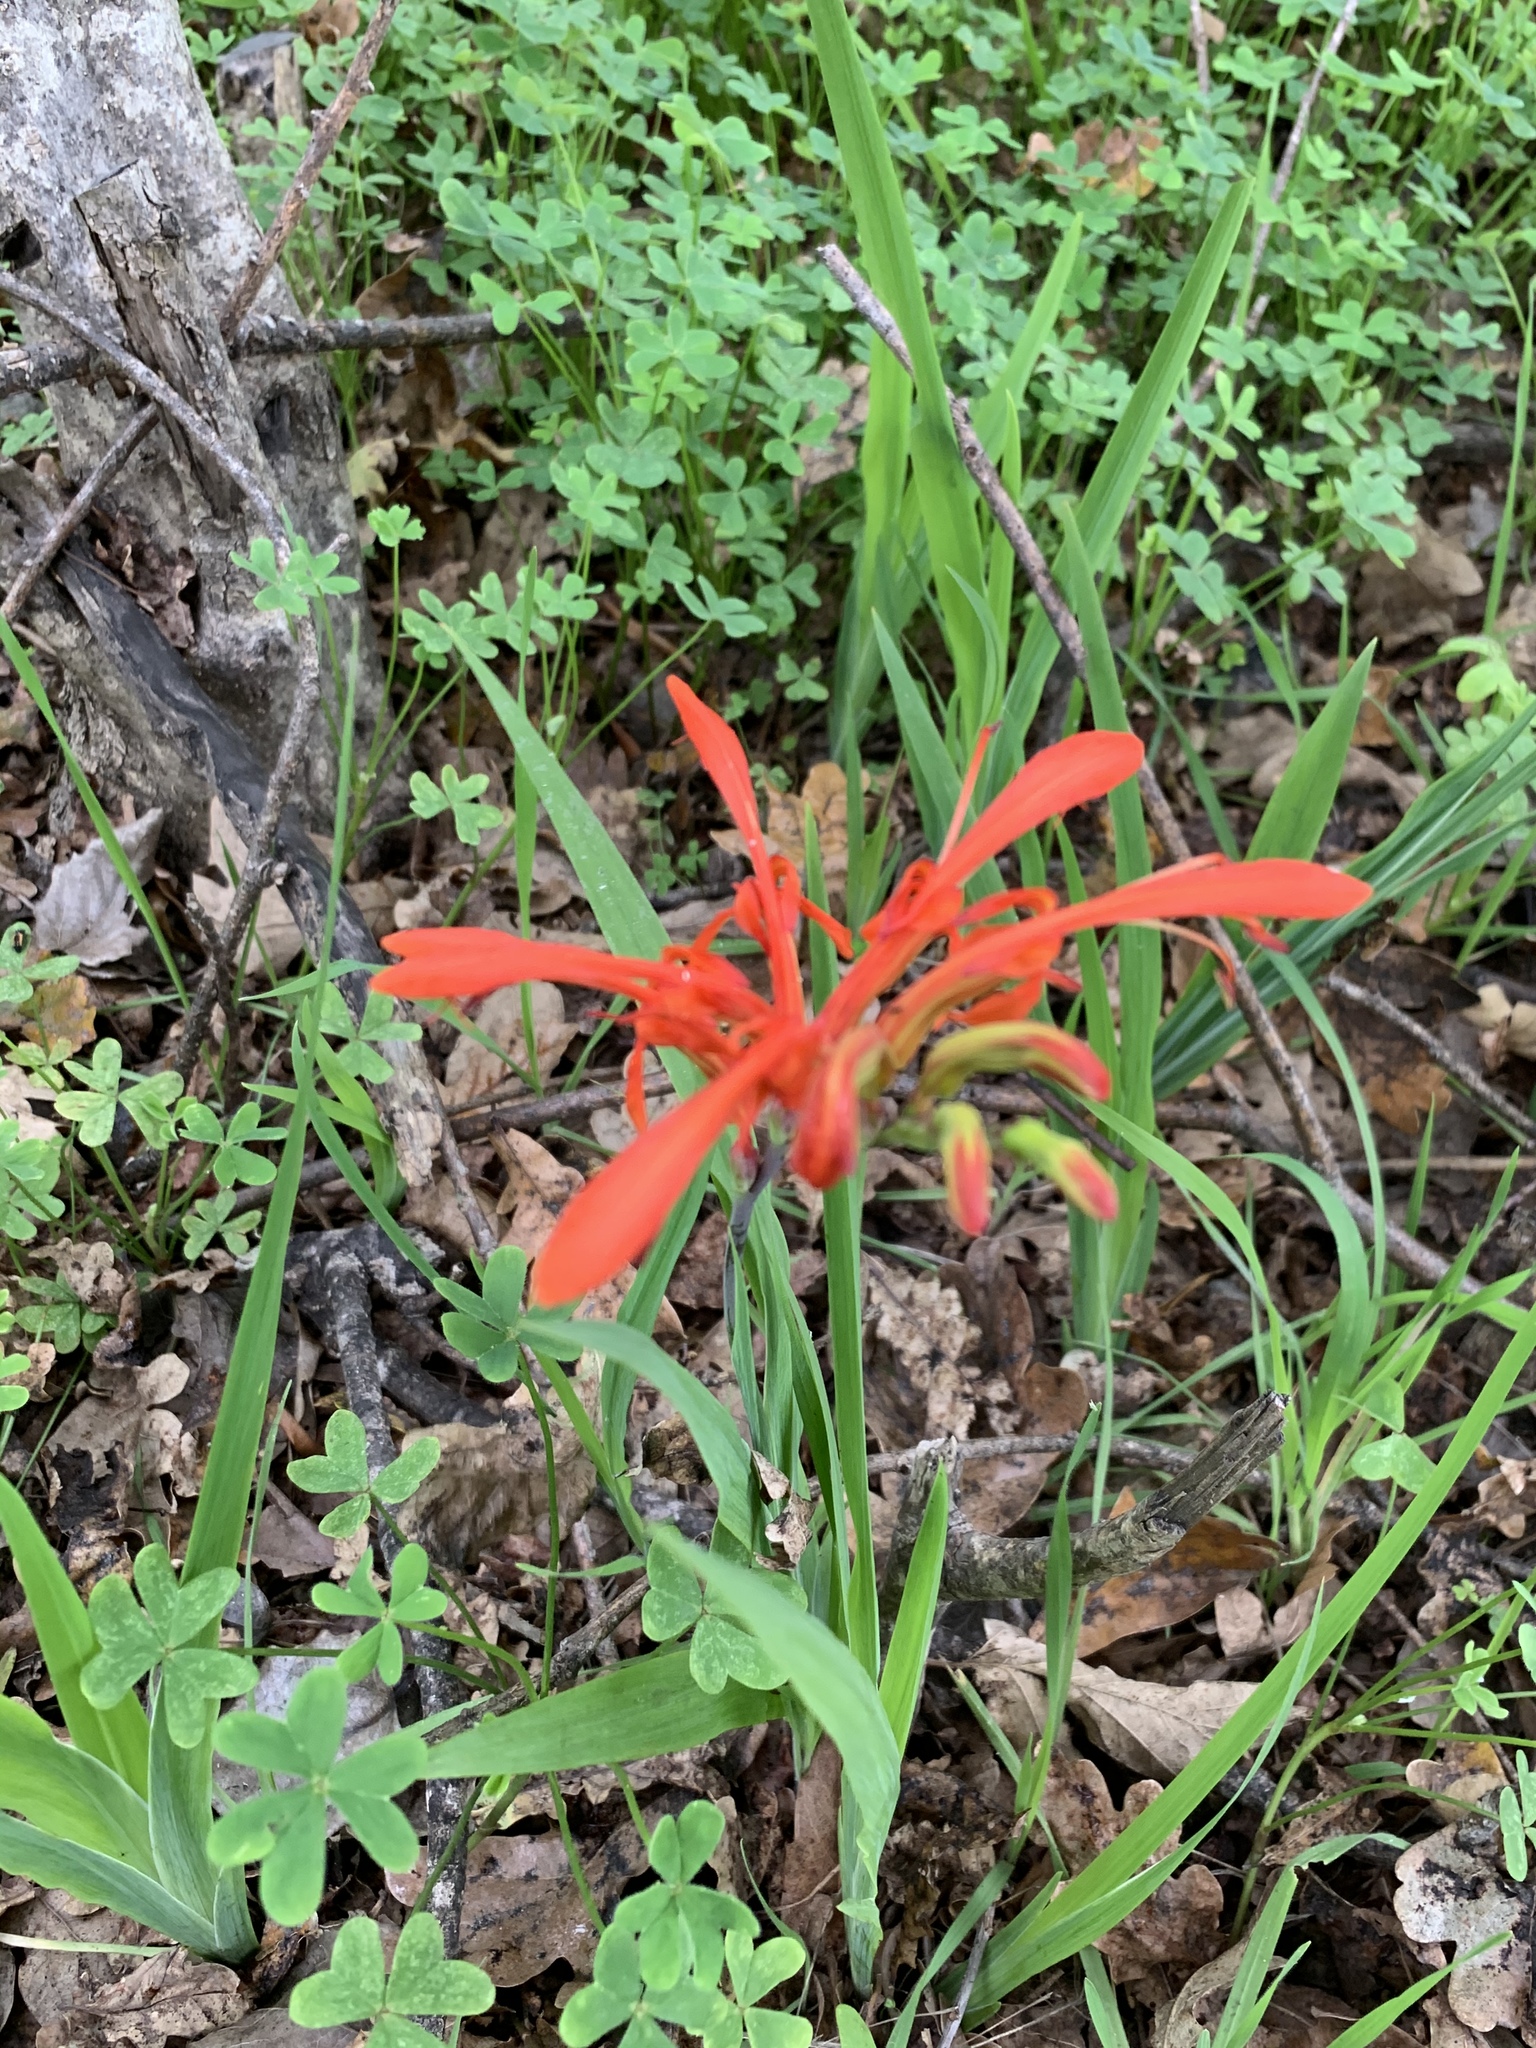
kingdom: Plantae
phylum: Tracheophyta
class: Liliopsida
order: Asparagales
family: Iridaceae
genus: Chasmanthe
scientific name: Chasmanthe aethiopica
